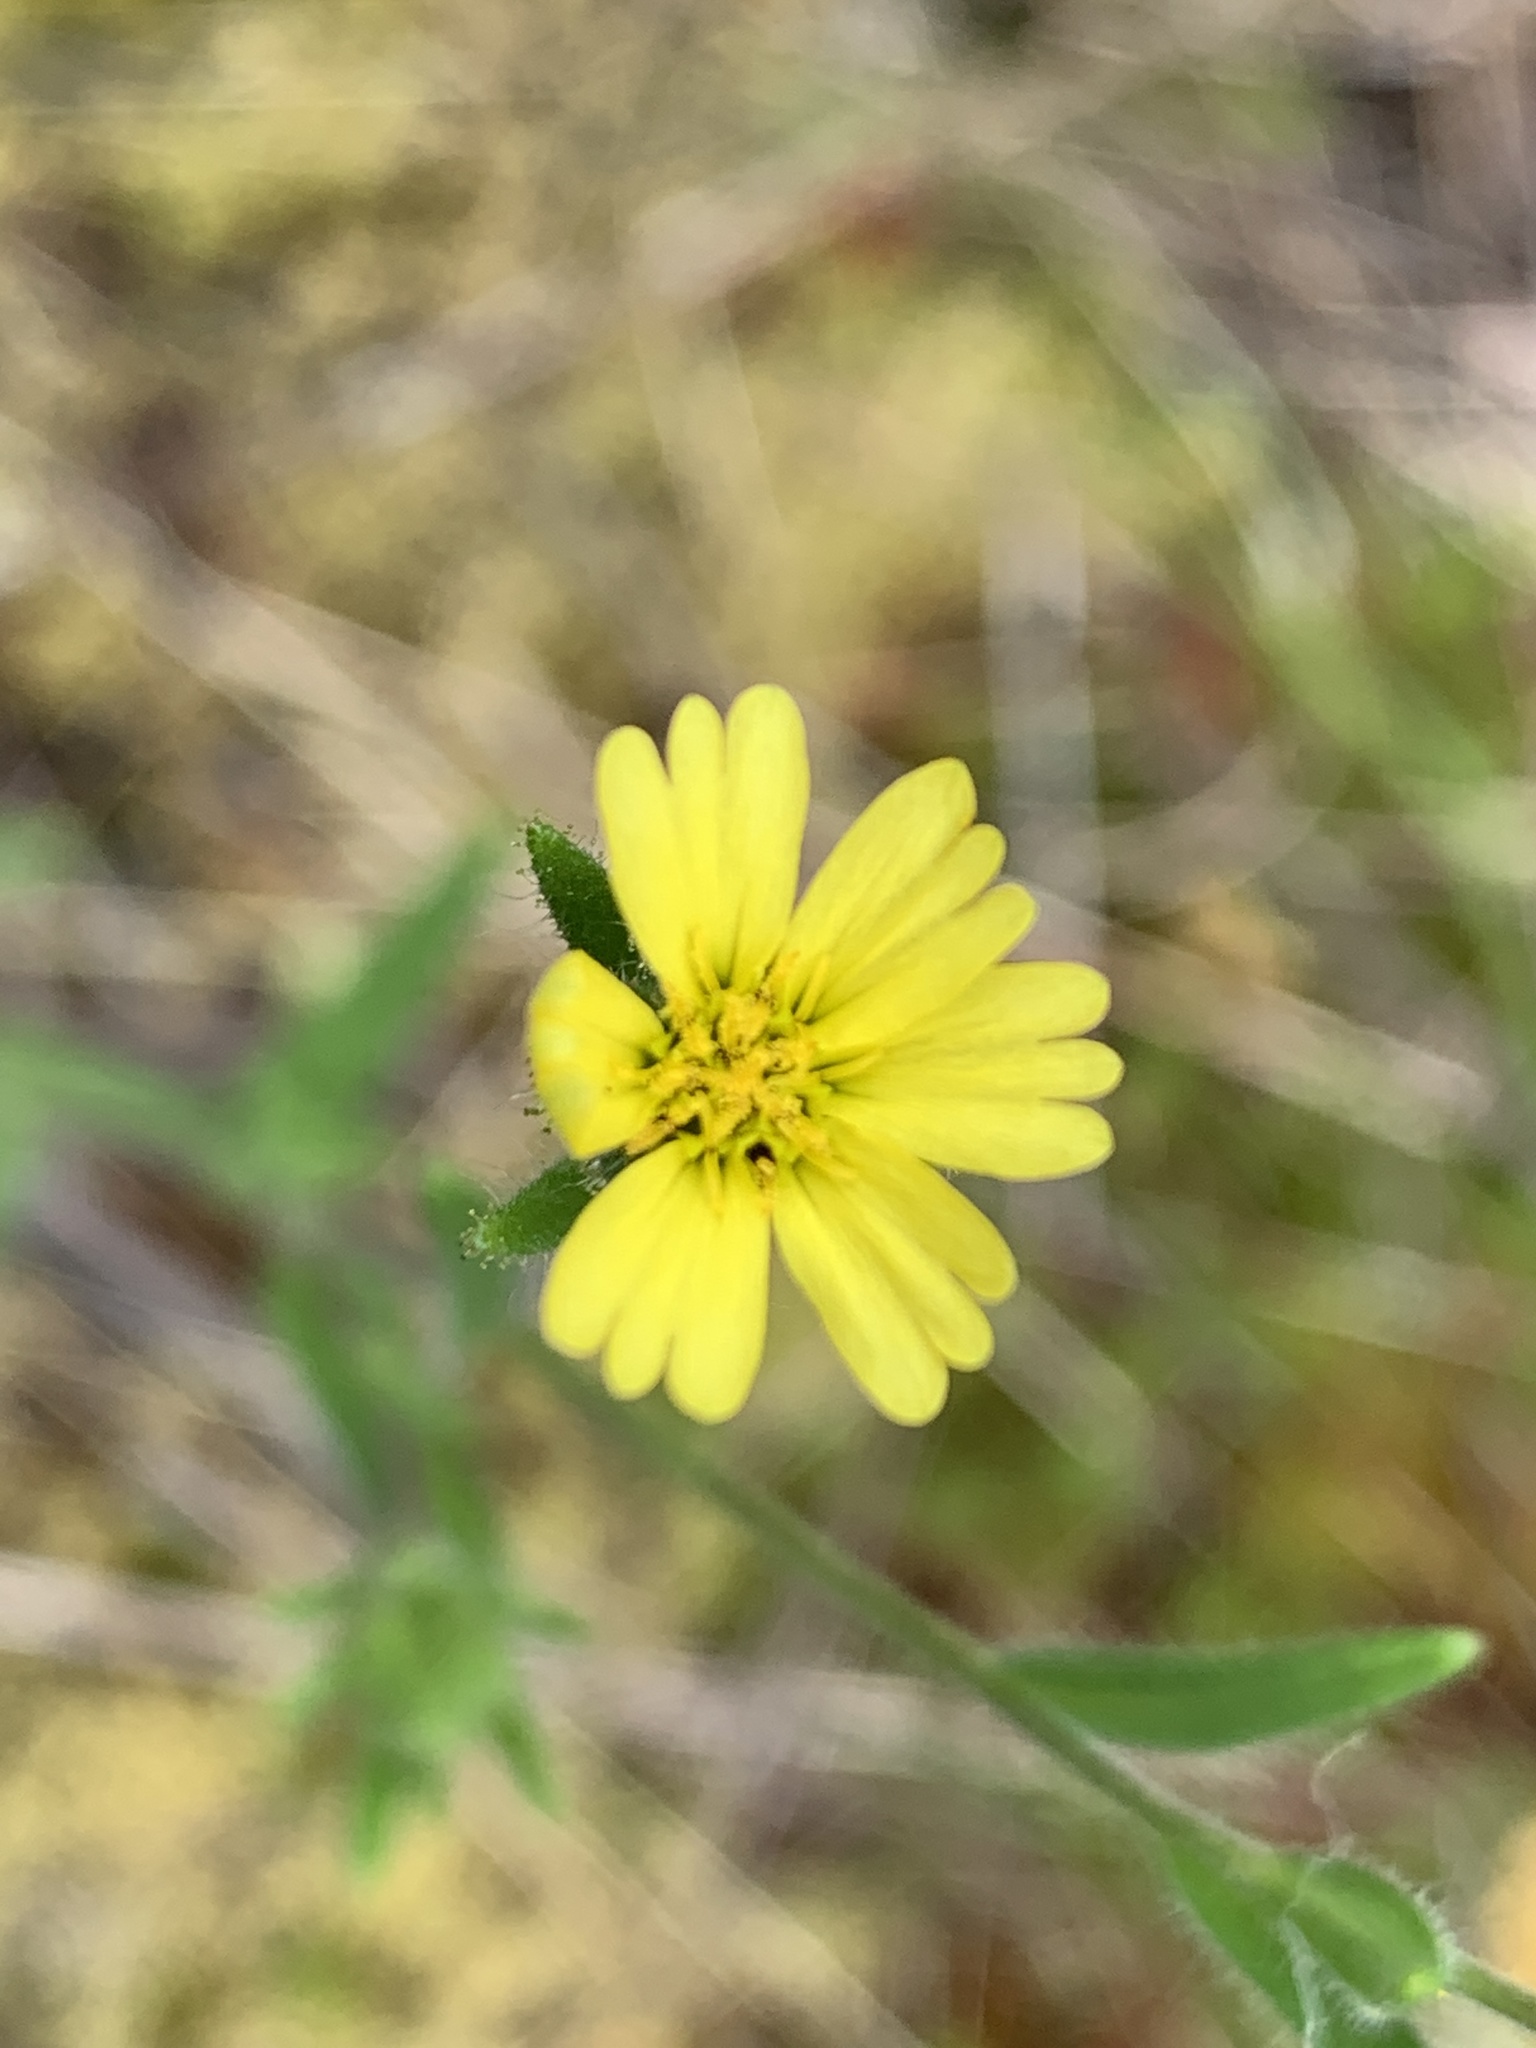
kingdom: Plantae
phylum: Tracheophyta
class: Magnoliopsida
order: Asterales
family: Asteraceae
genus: Madia
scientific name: Madia gracilis
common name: Grassy tarweed
